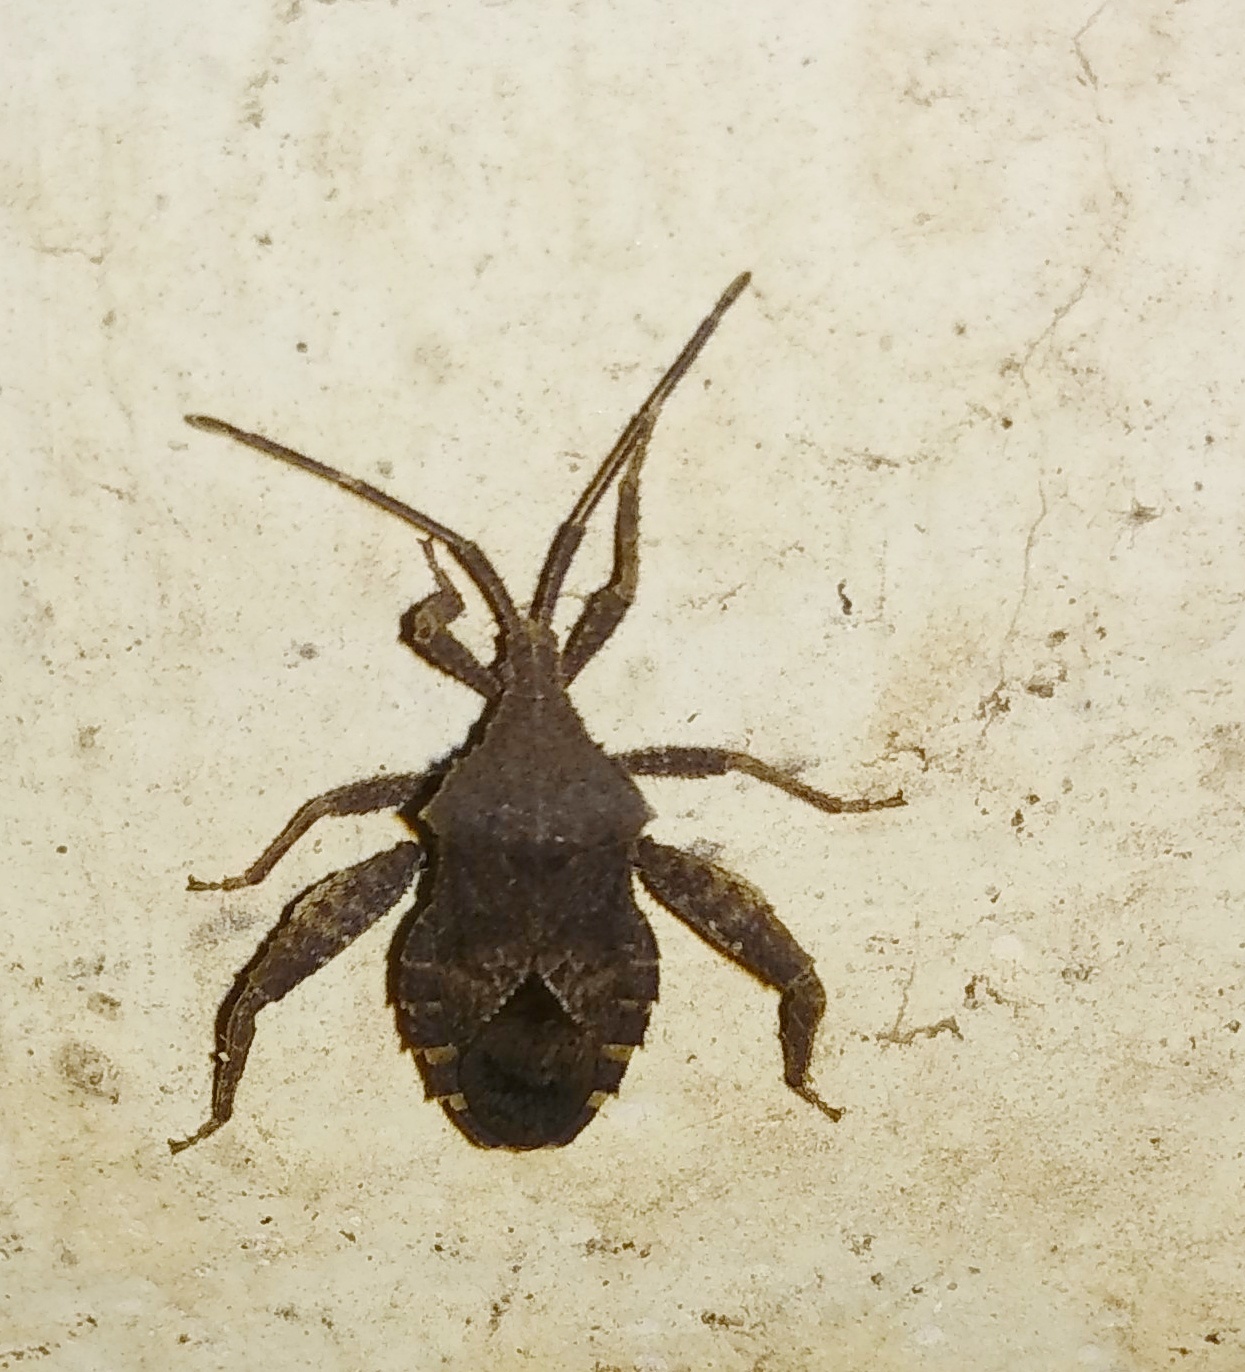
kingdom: Animalia
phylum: Arthropoda
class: Insecta
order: Hemiptera
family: Coreidae
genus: Acanthocoris
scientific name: Acanthocoris scaber
